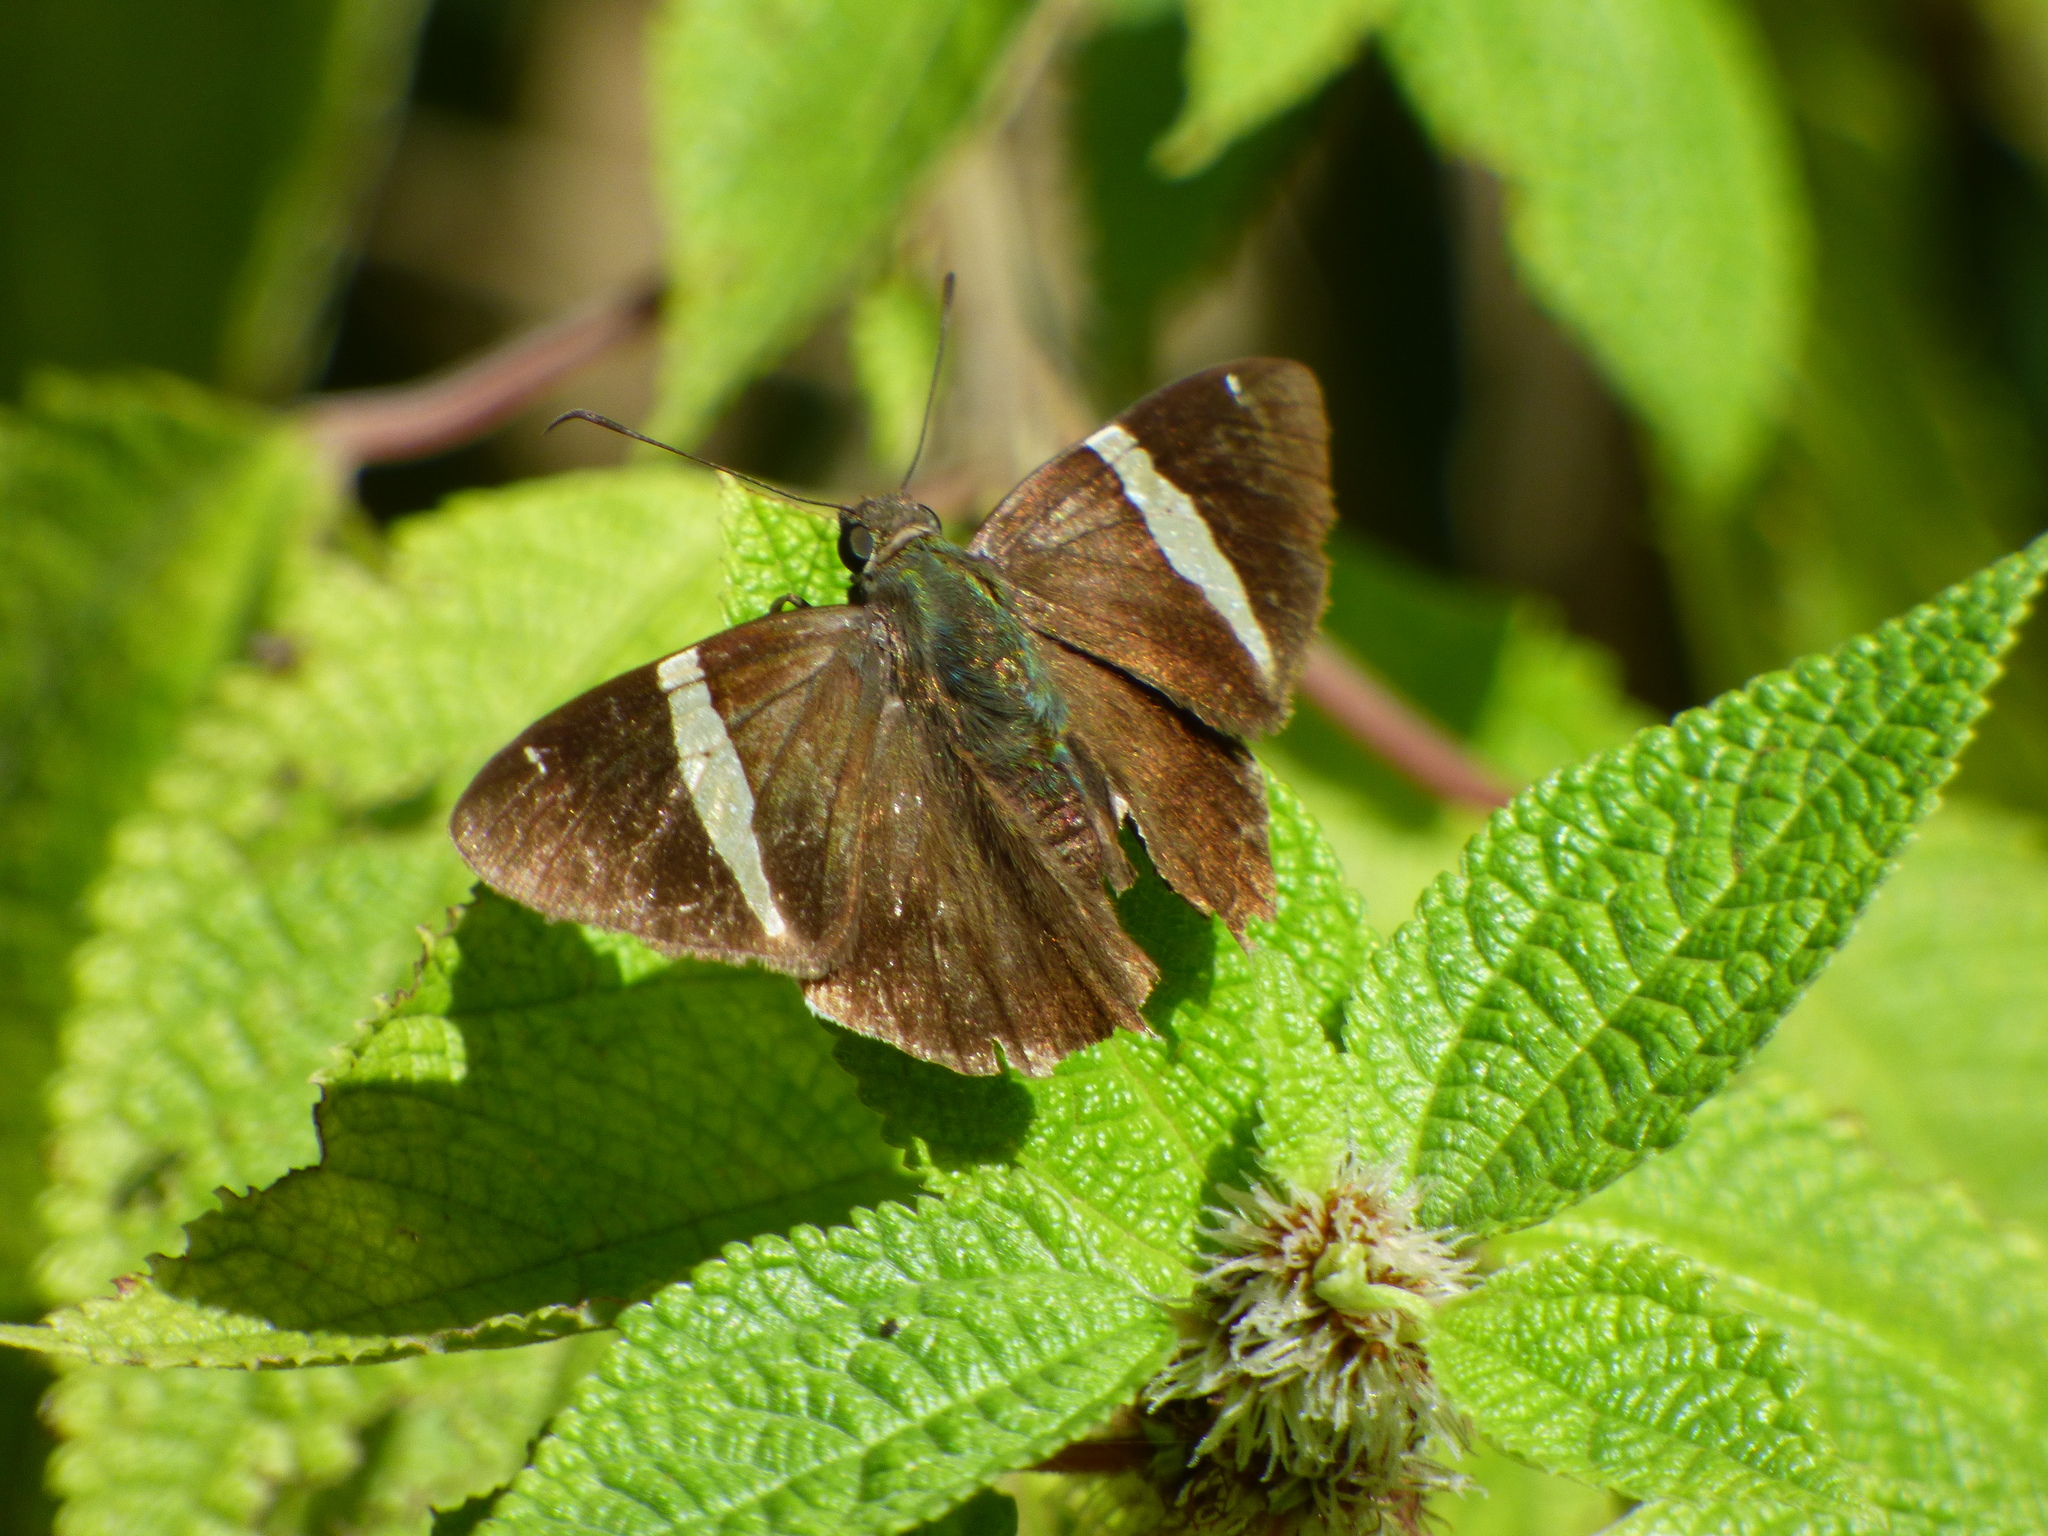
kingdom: Animalia
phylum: Arthropoda
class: Insecta
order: Lepidoptera
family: Hesperiidae
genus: Autochton
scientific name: Autochton longipennis
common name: Spike banded-skipper
